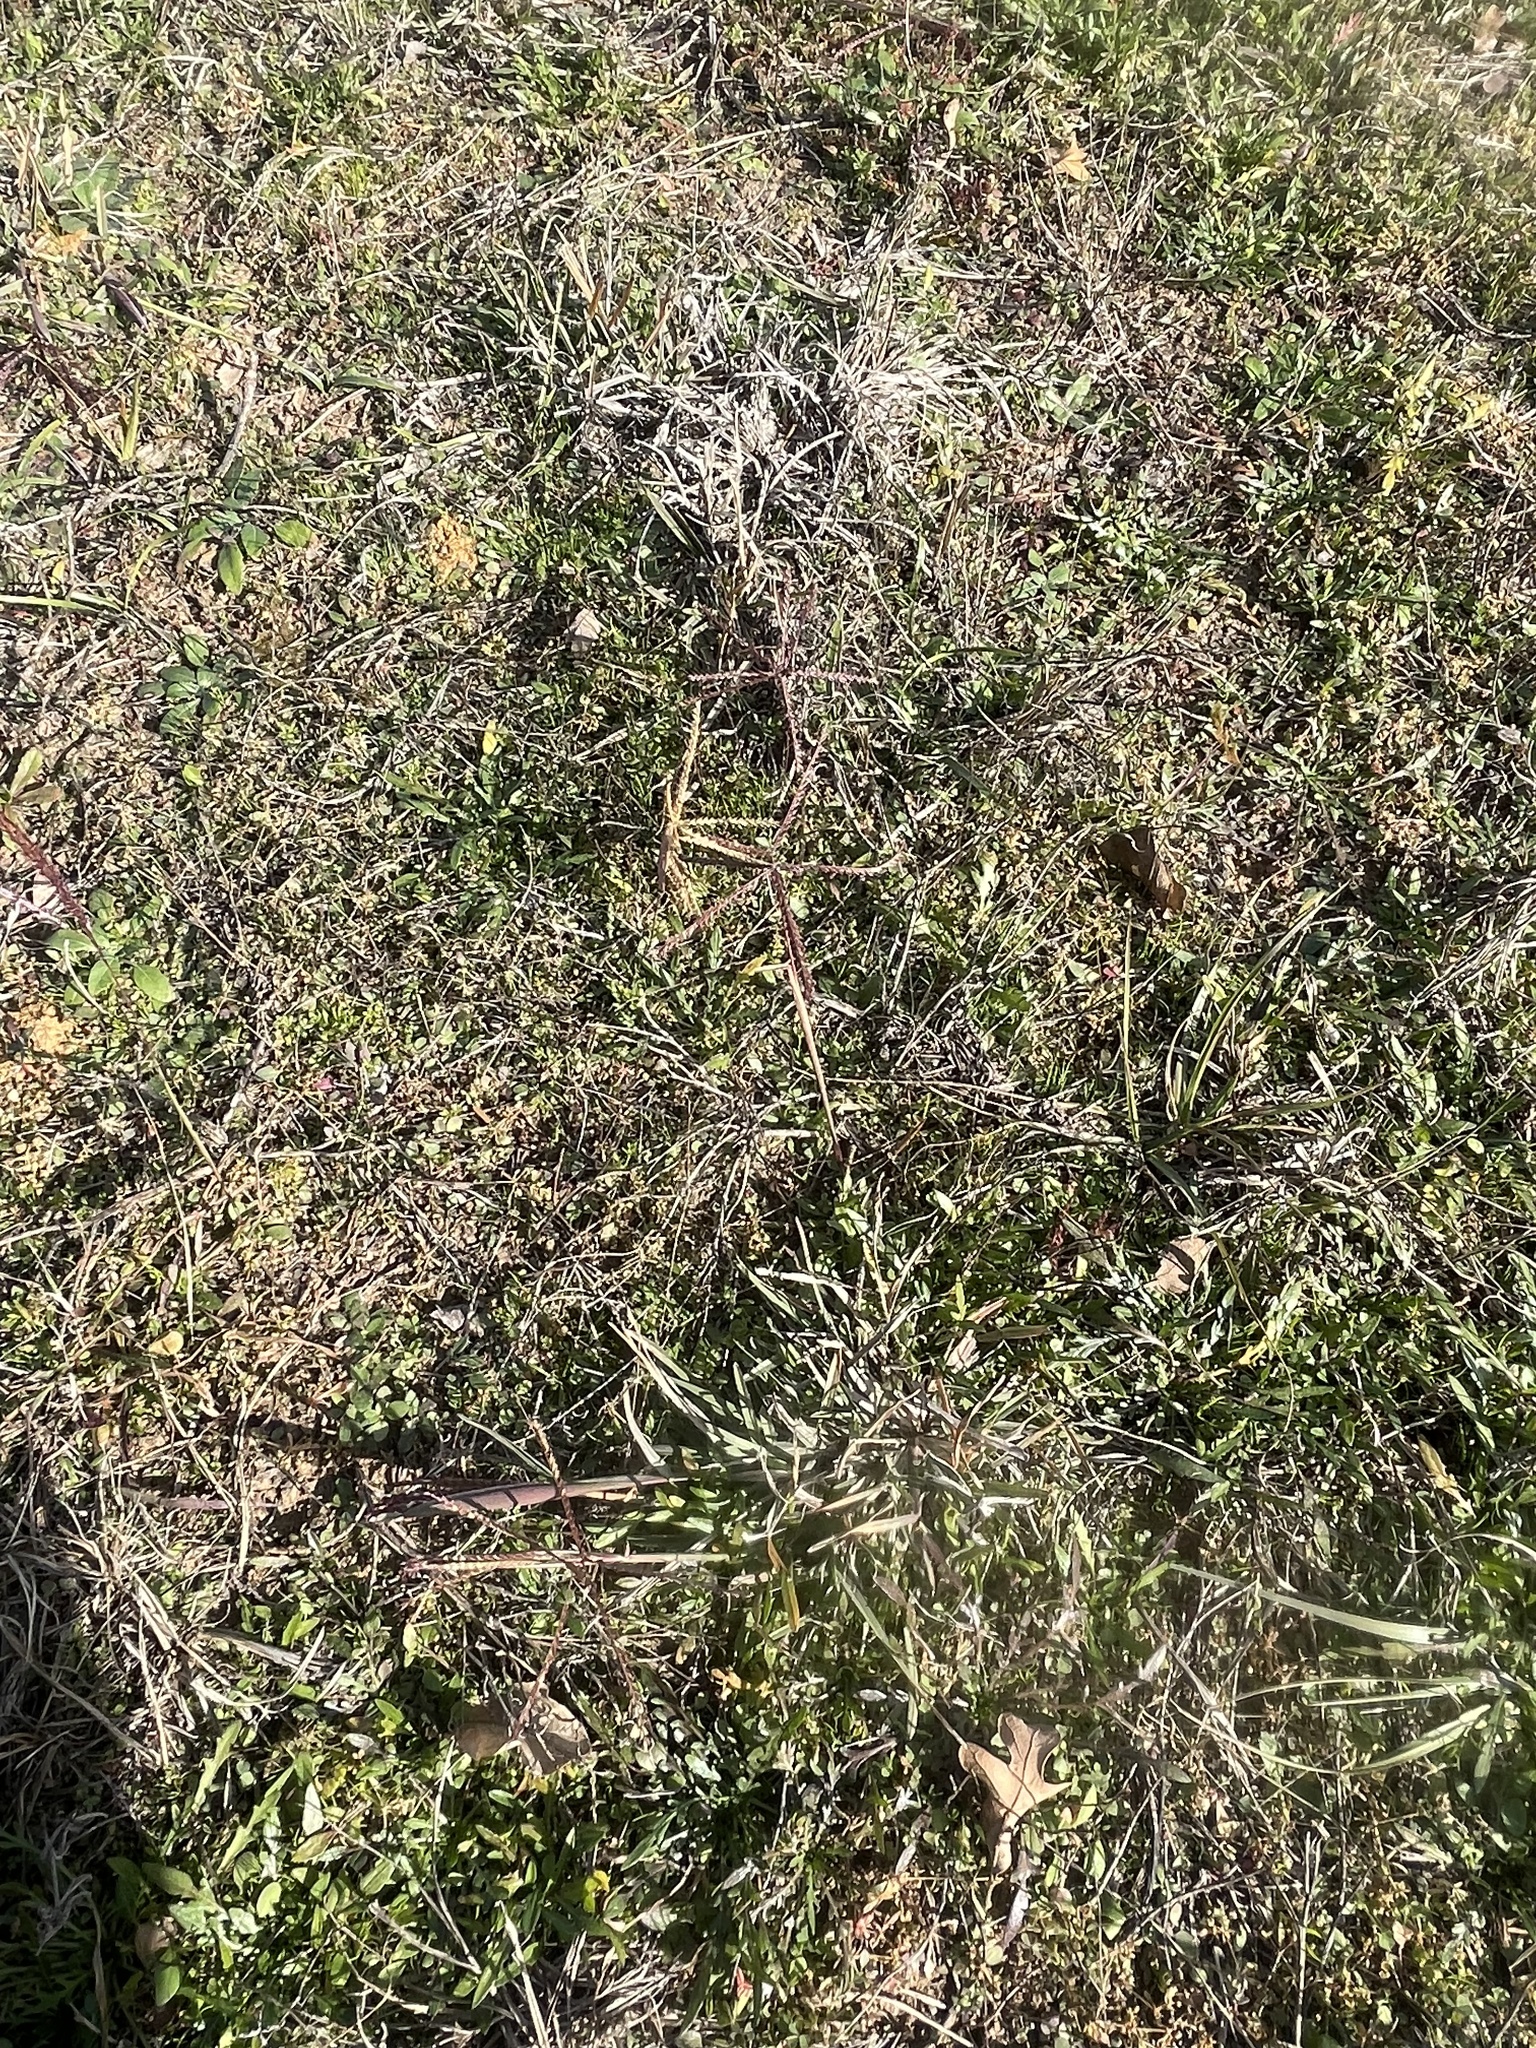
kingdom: Plantae
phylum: Tracheophyta
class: Liliopsida
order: Poales
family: Poaceae
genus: Chloris
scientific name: Chloris verticillata
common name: Tumble windmill grass
